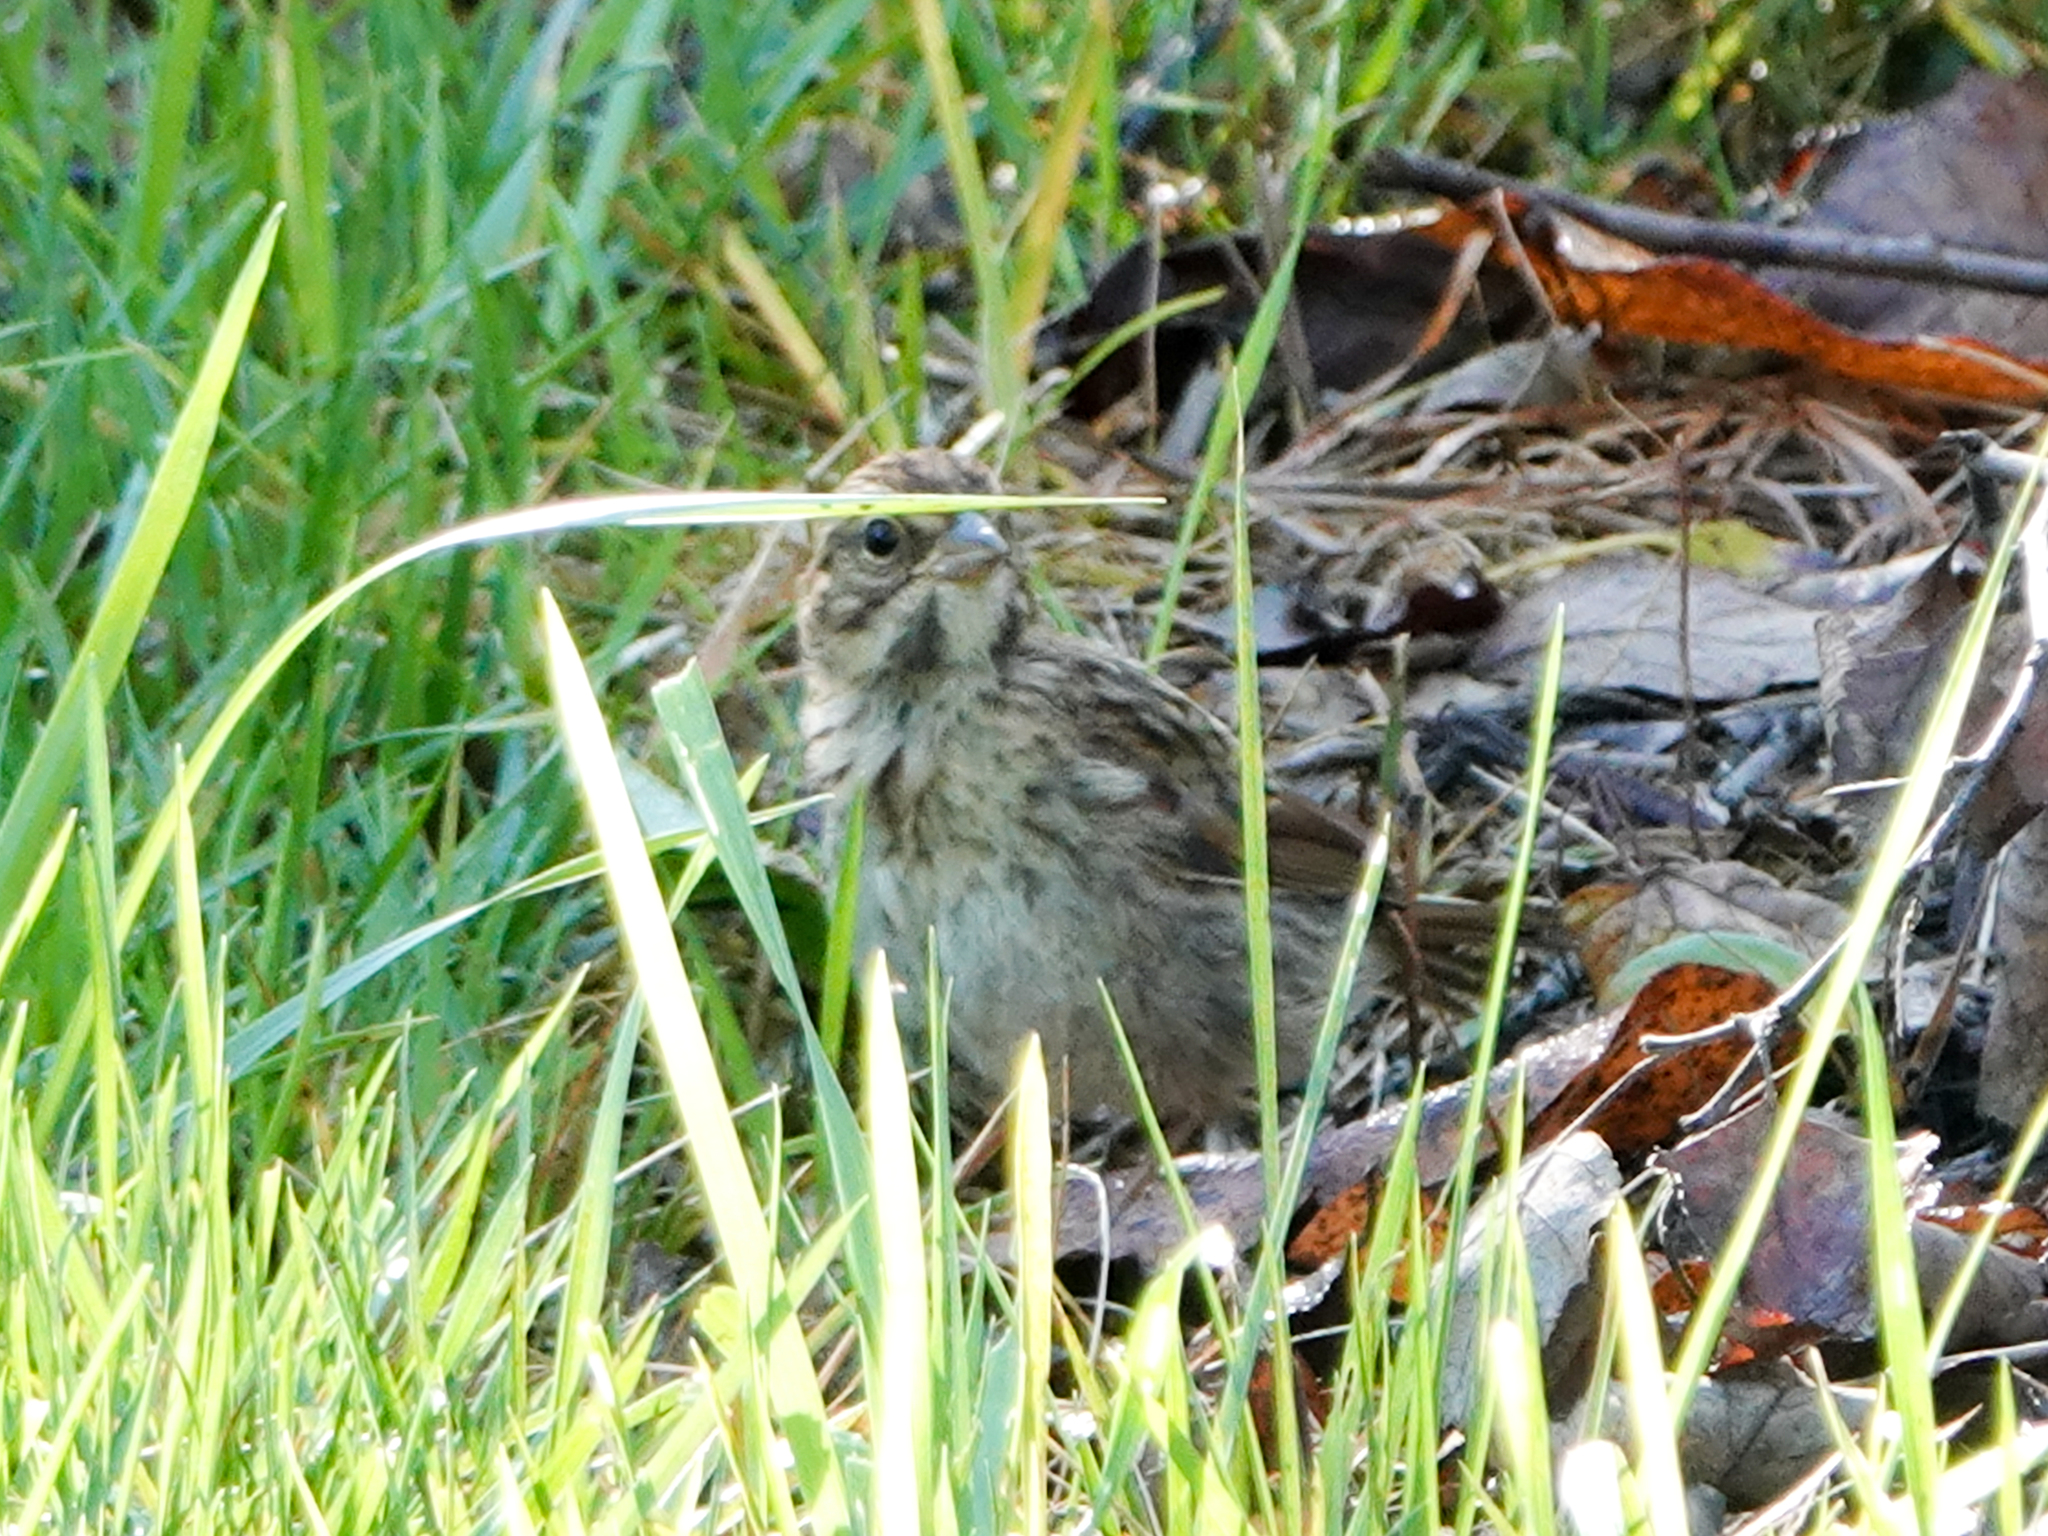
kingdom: Animalia
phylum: Chordata
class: Aves
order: Passeriformes
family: Passerellidae
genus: Melospiza
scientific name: Melospiza melodia
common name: Song sparrow
